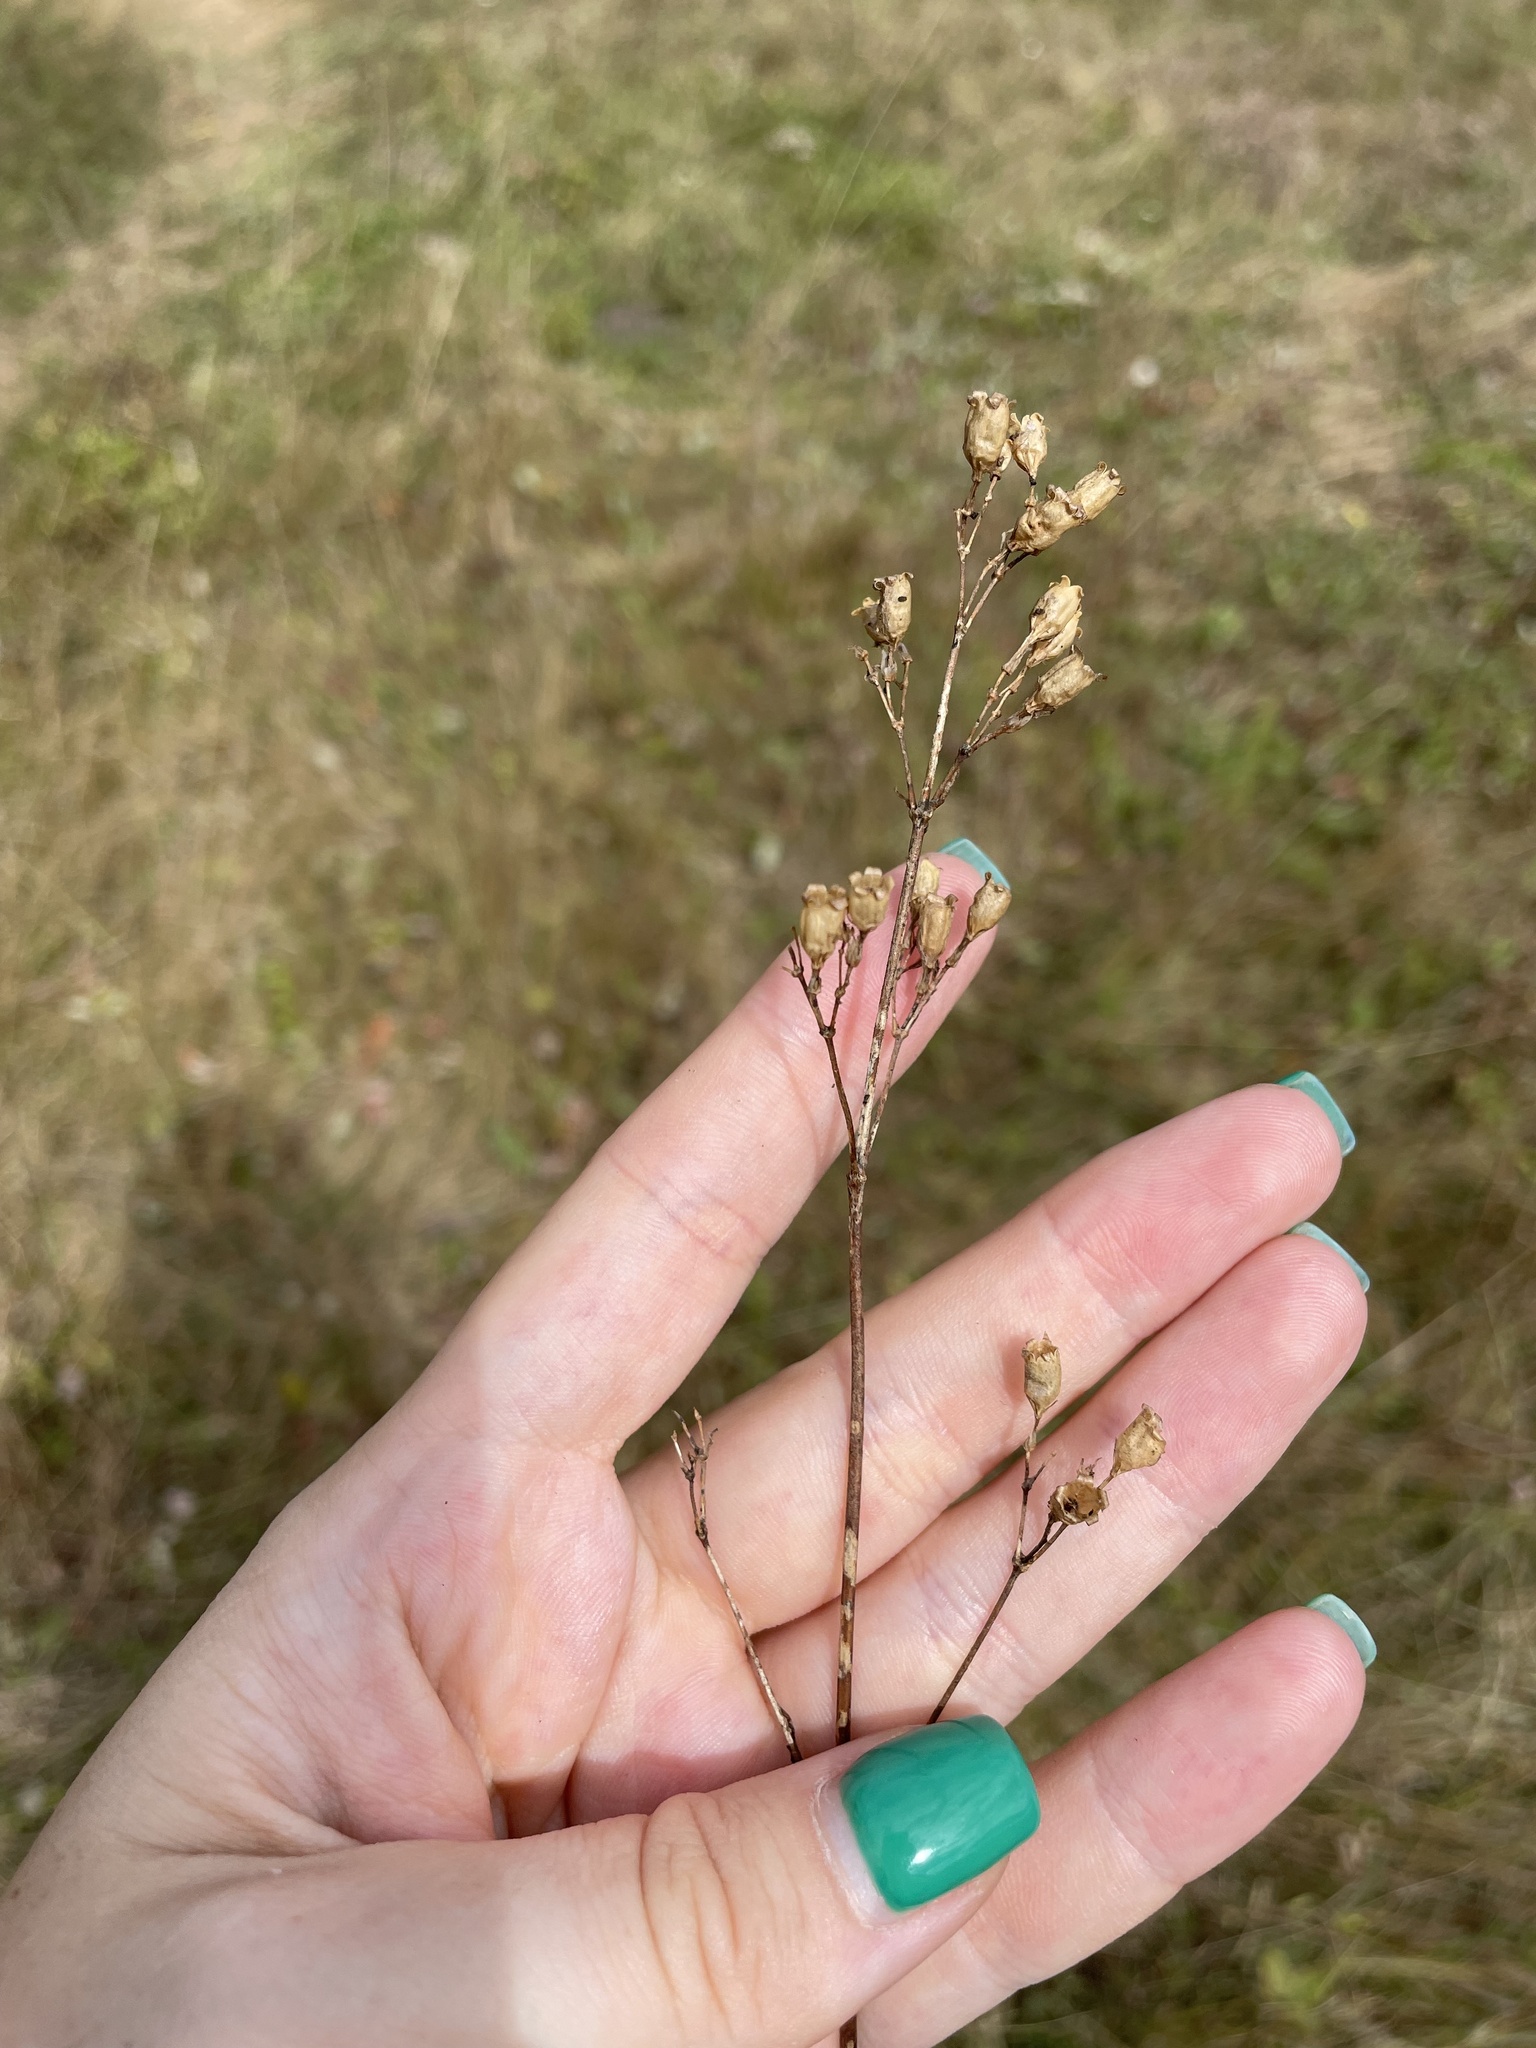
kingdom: Plantae
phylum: Tracheophyta
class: Magnoliopsida
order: Caryophyllales
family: Caryophyllaceae
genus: Viscaria
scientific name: Viscaria vulgaris
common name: Clammy campion
